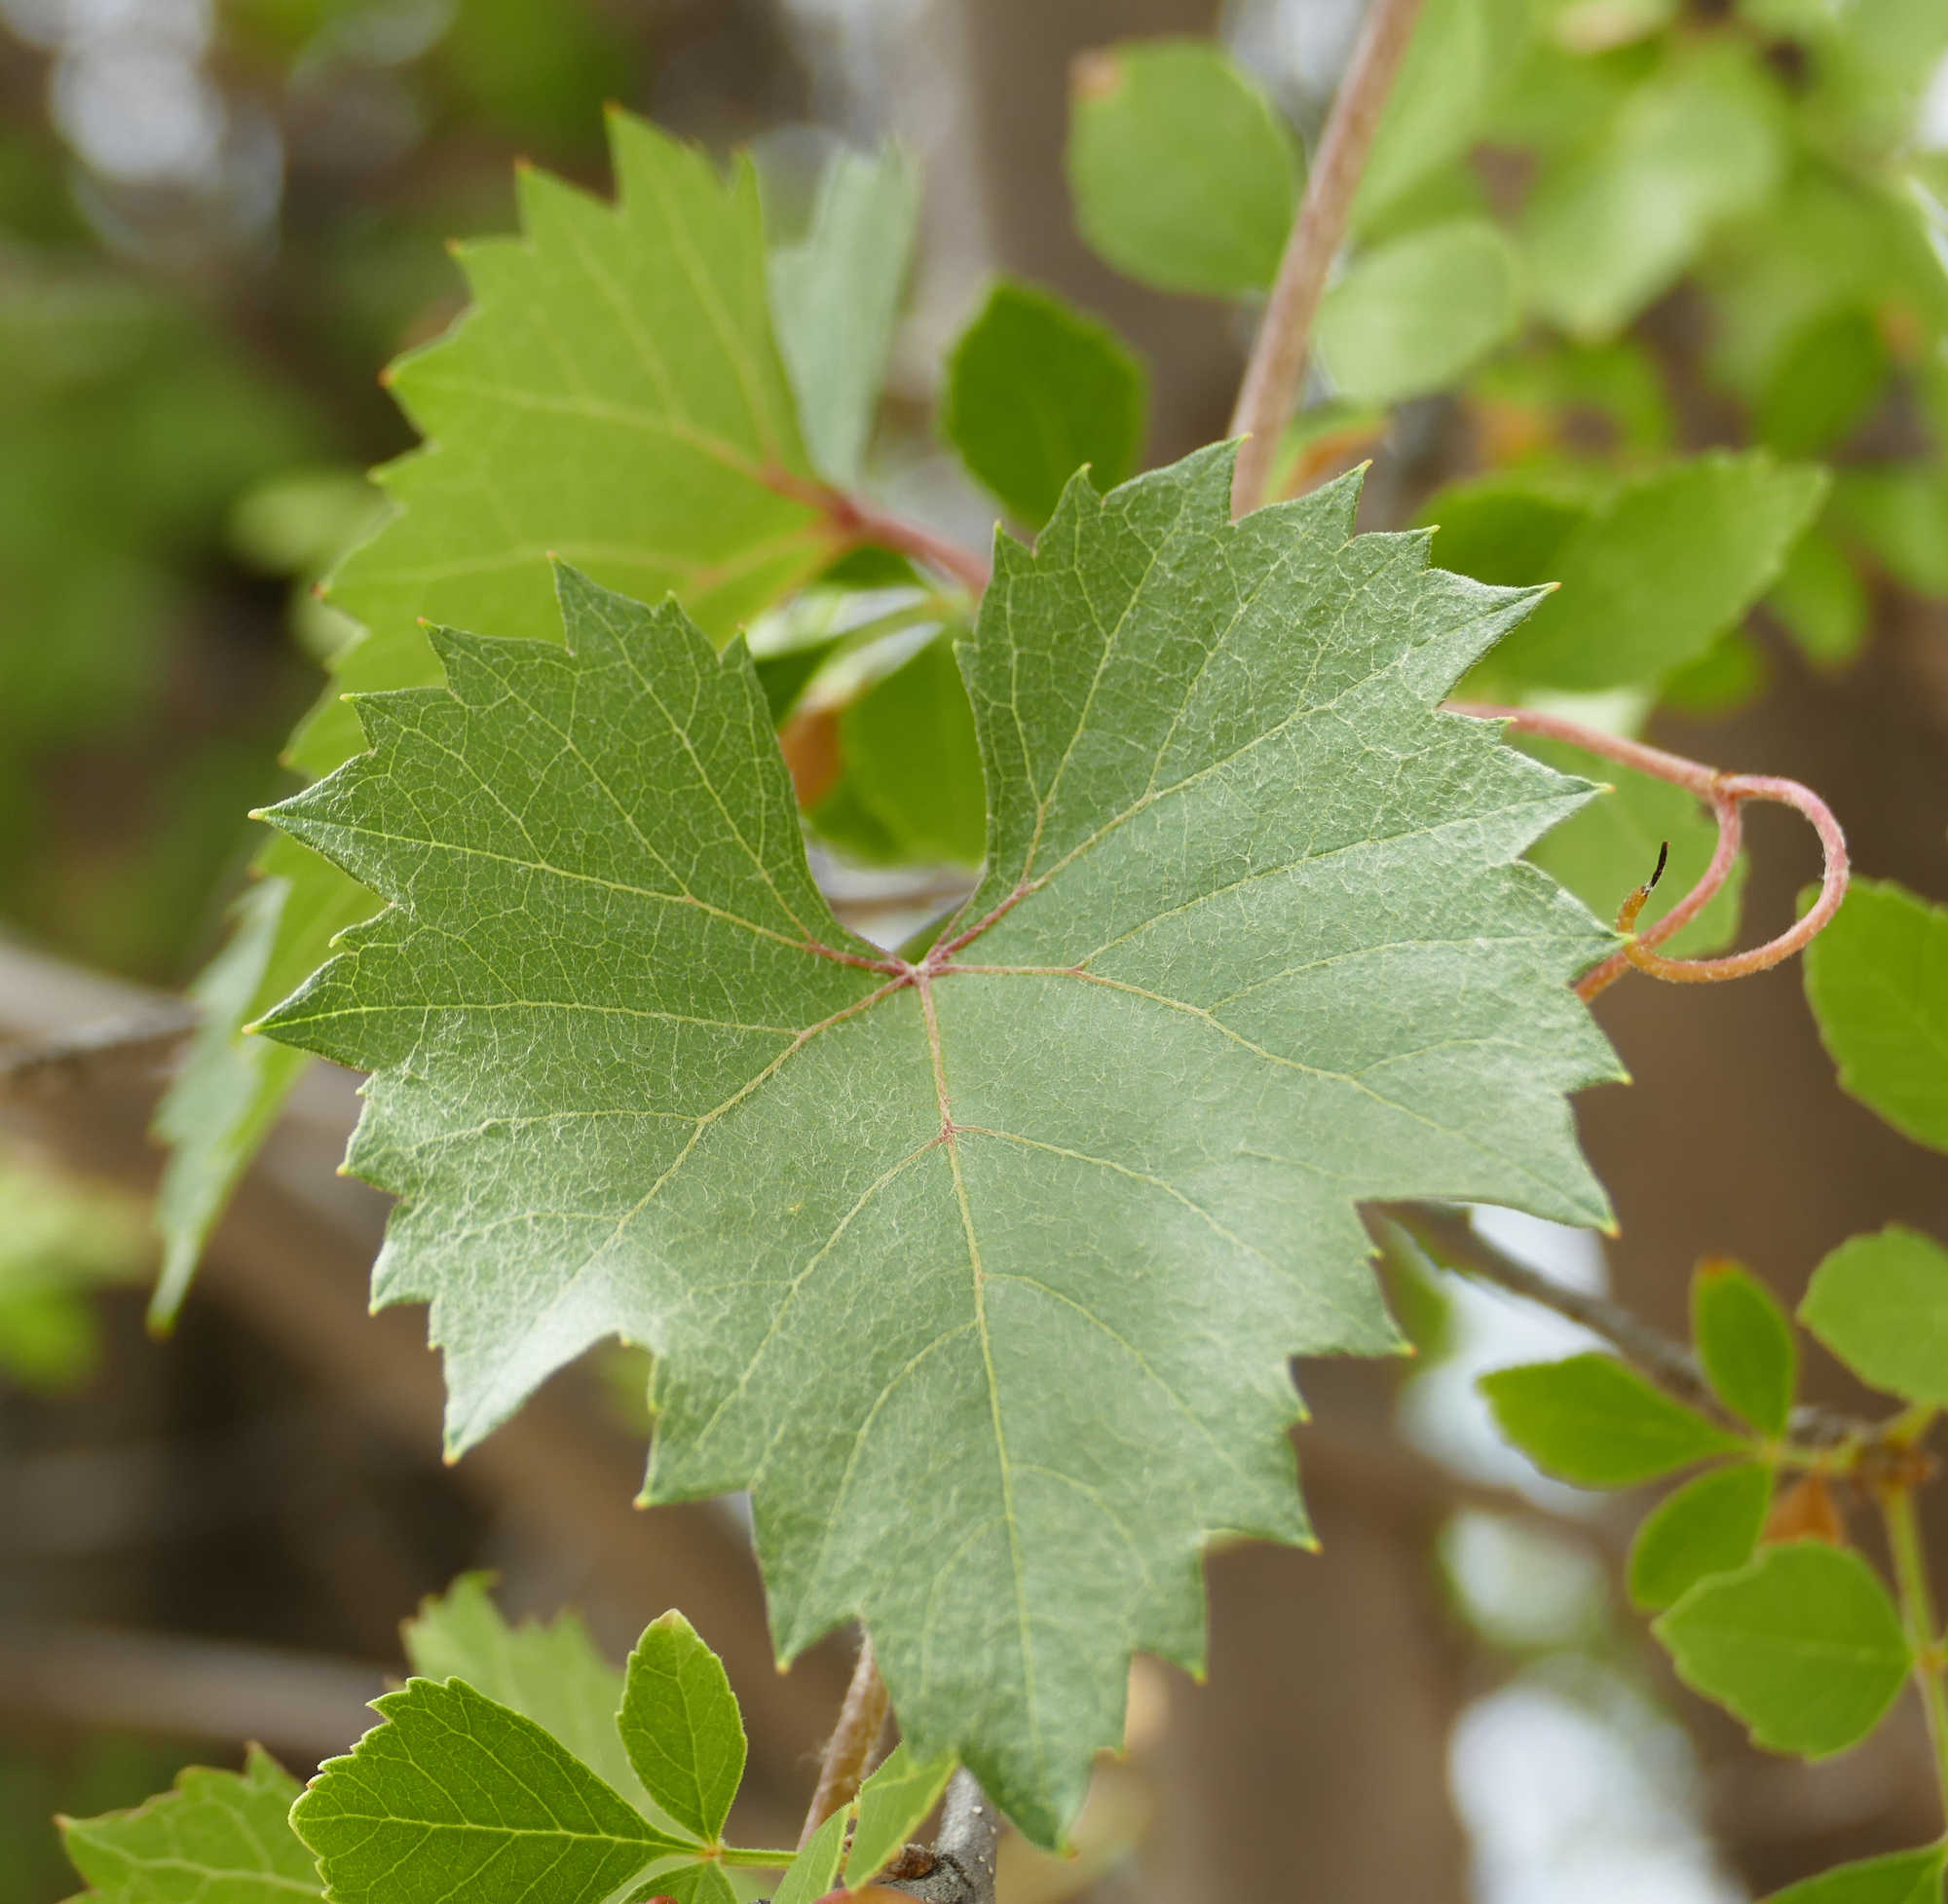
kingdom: Plantae
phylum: Tracheophyta
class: Magnoliopsida
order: Vitales
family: Vitaceae
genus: Vitis
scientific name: Vitis arizonica
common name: Canyon grape
